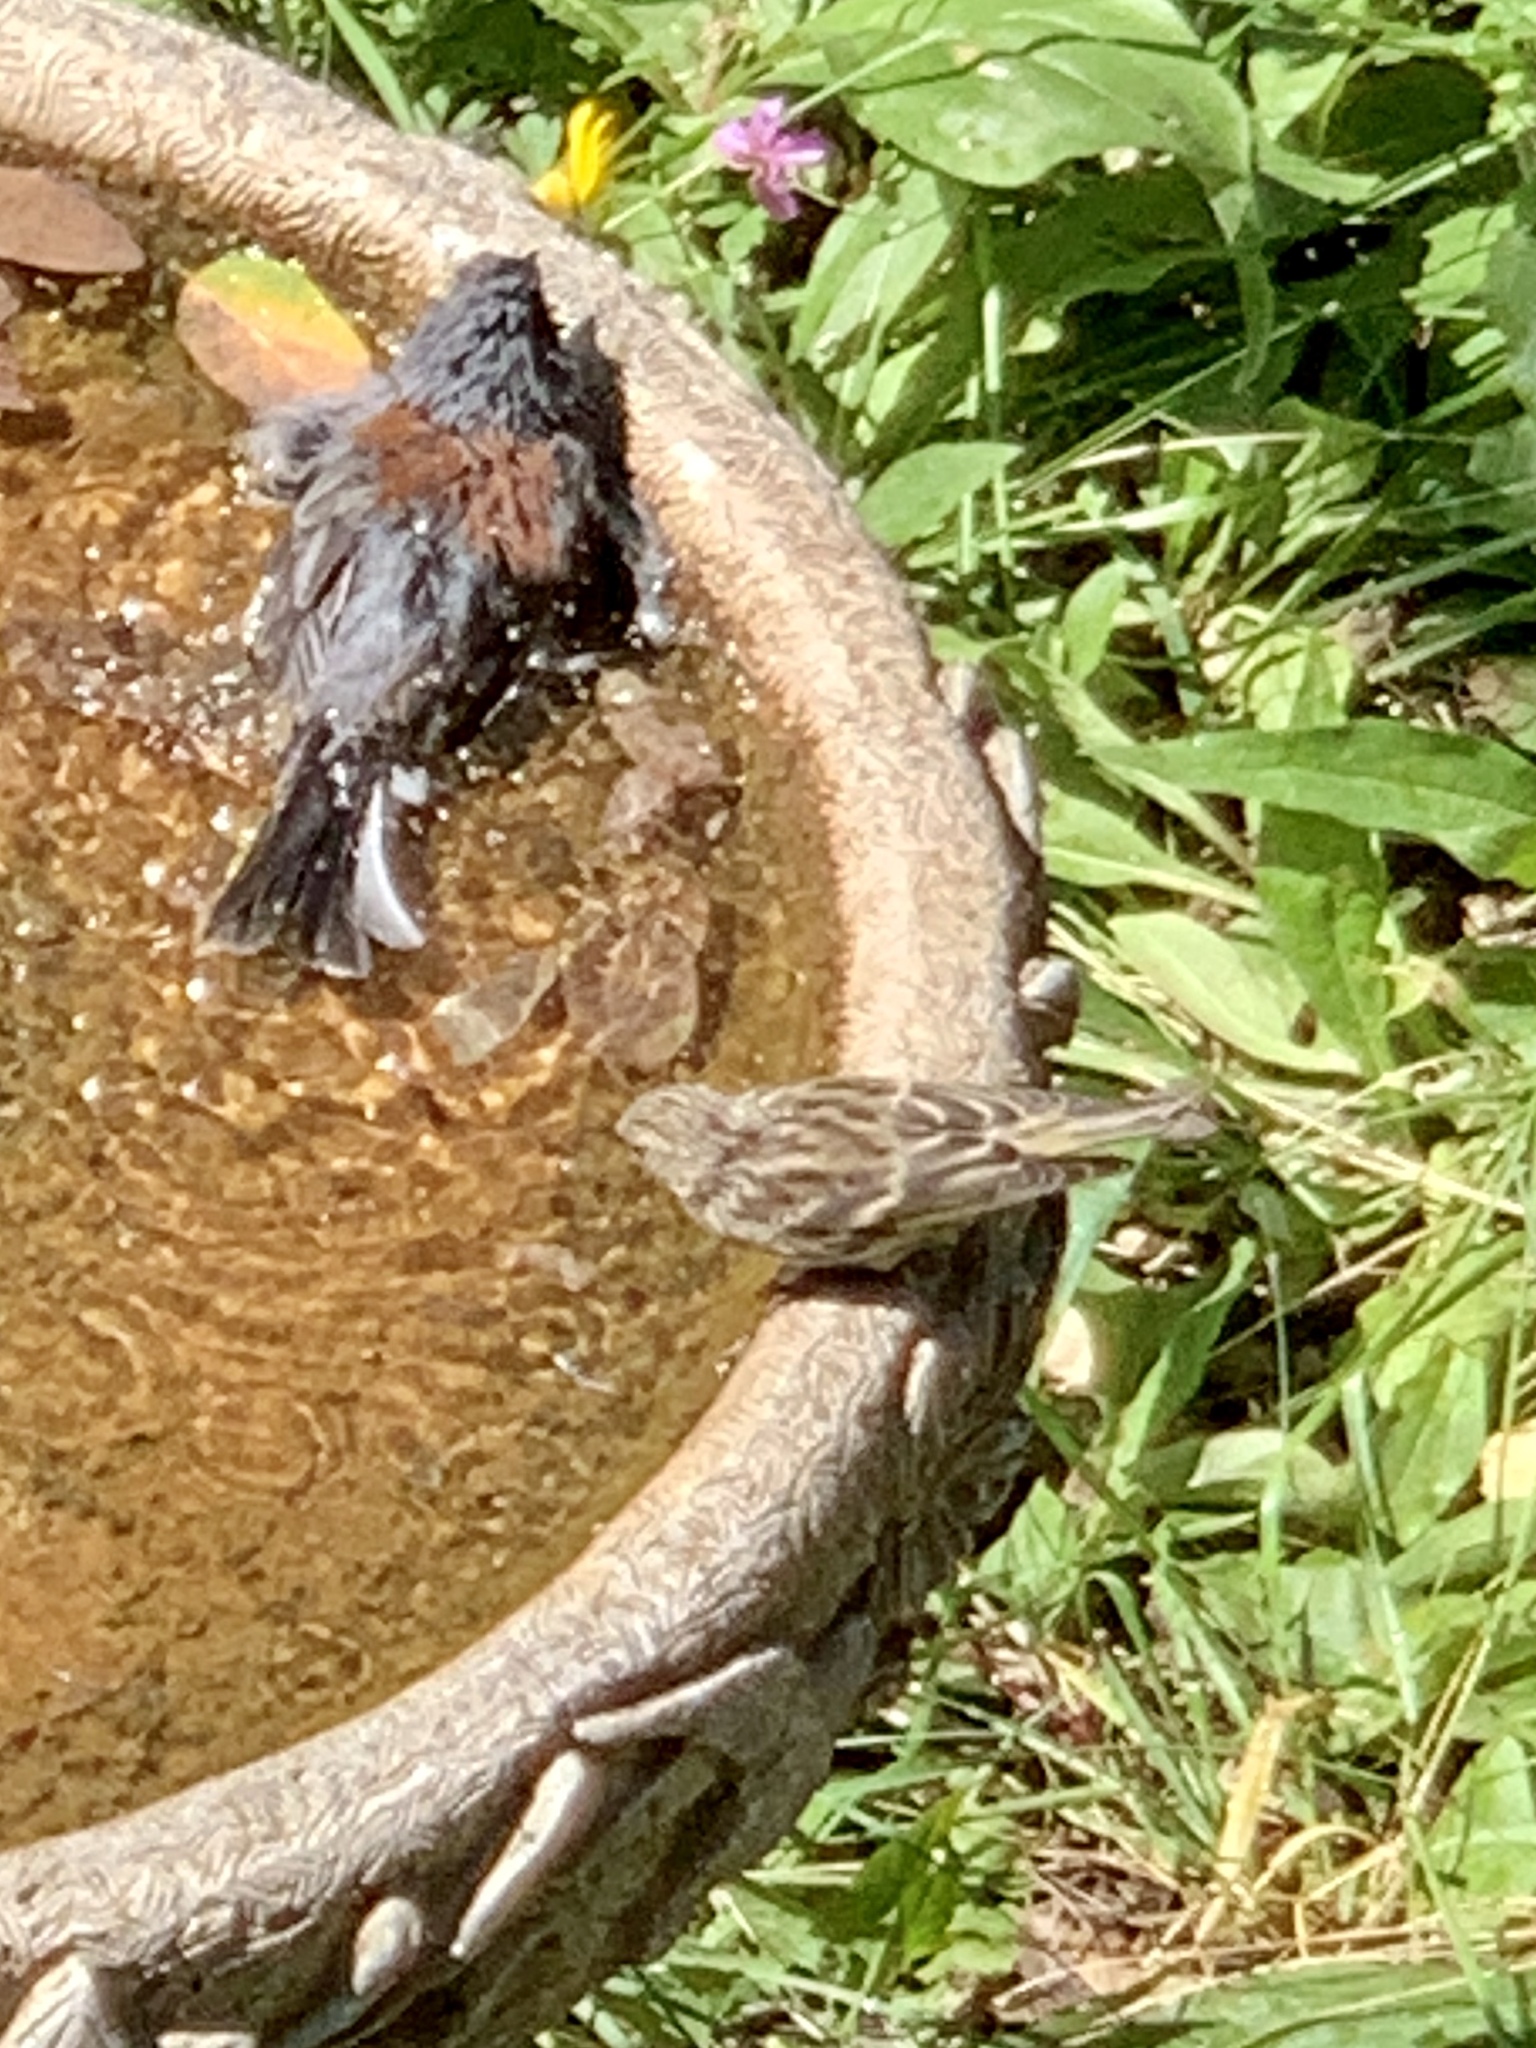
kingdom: Animalia
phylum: Chordata
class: Aves
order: Passeriformes
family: Fringillidae
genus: Spinus
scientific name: Spinus pinus
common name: Pine siskin
